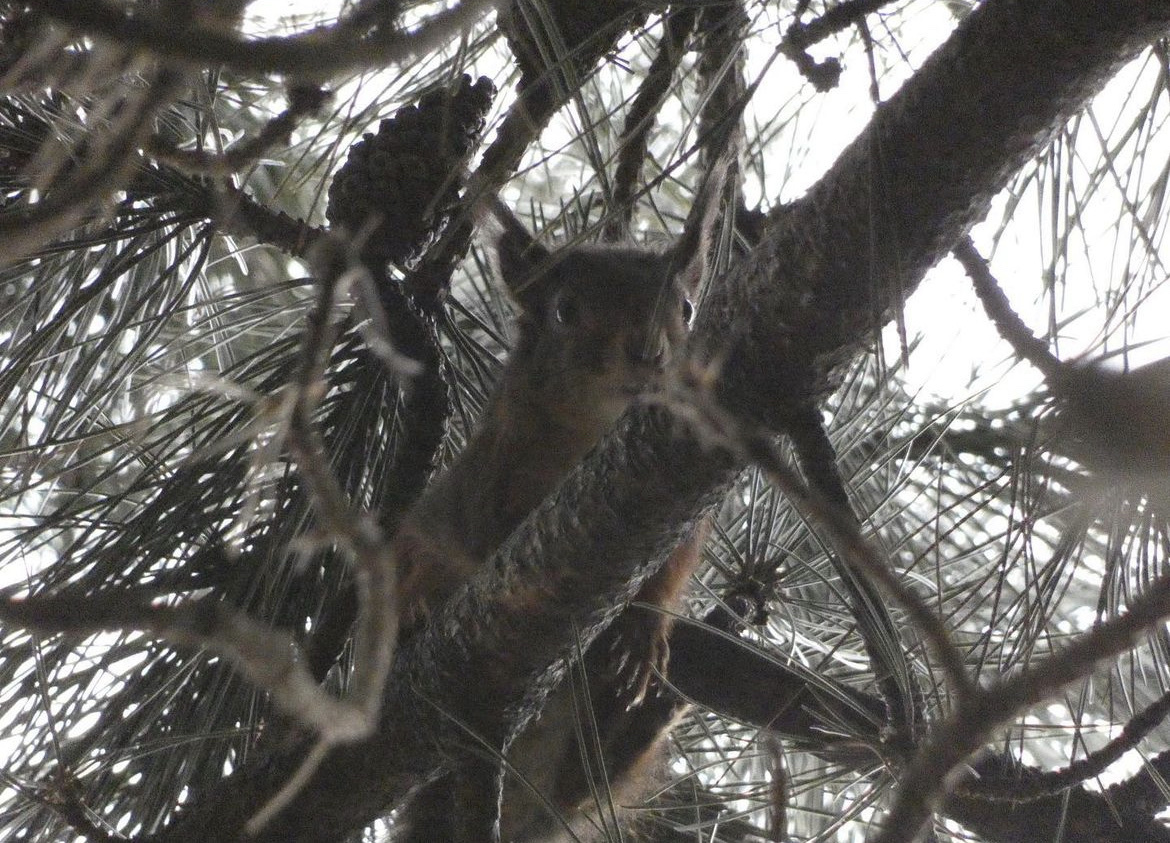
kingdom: Animalia
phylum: Chordata
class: Mammalia
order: Rodentia
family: Sciuridae
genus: Sciurus
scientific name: Sciurus vulgaris
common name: Eurasian red squirrel
